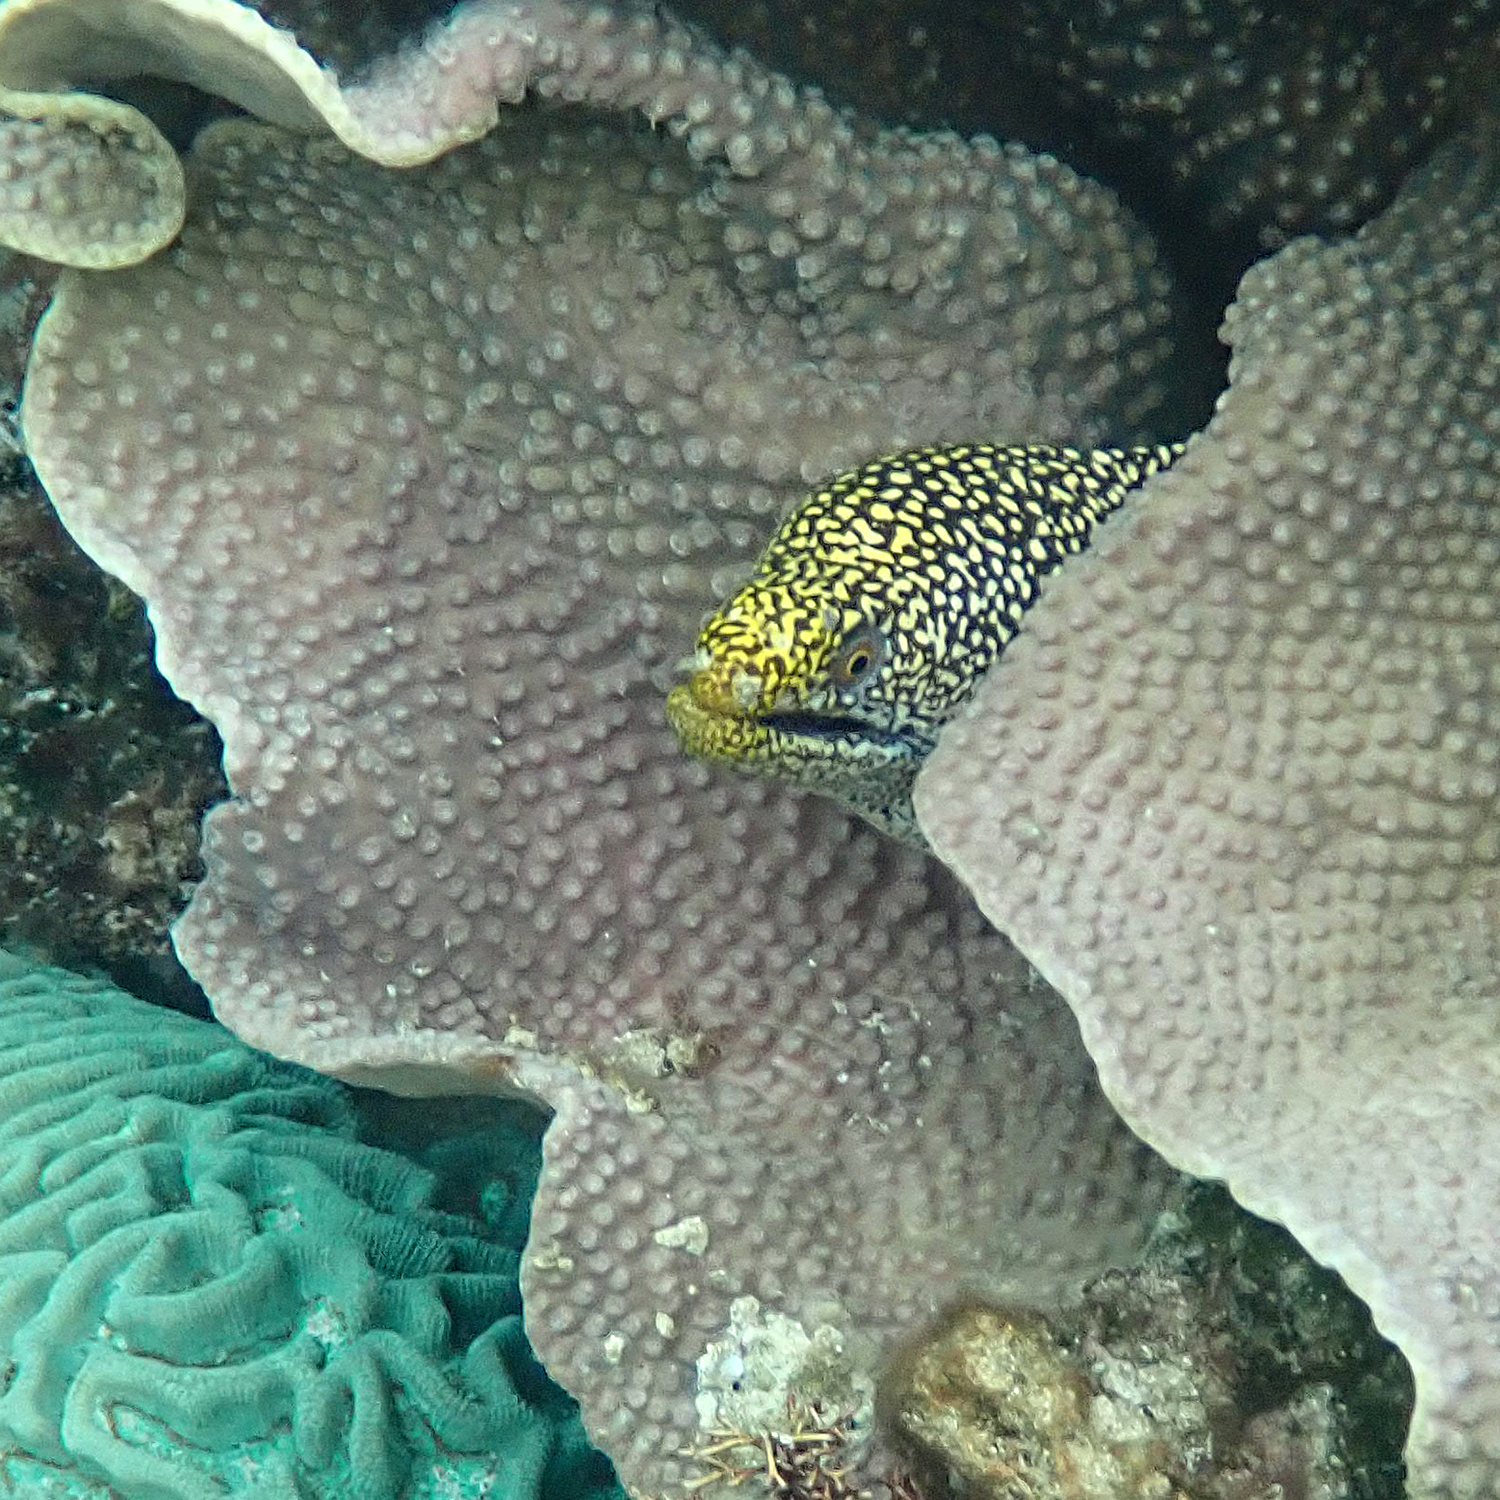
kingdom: Animalia
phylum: Chordata
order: Anguilliformes
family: Muraenidae
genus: Gymnothorax
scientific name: Gymnothorax eurostus
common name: Stout moray
